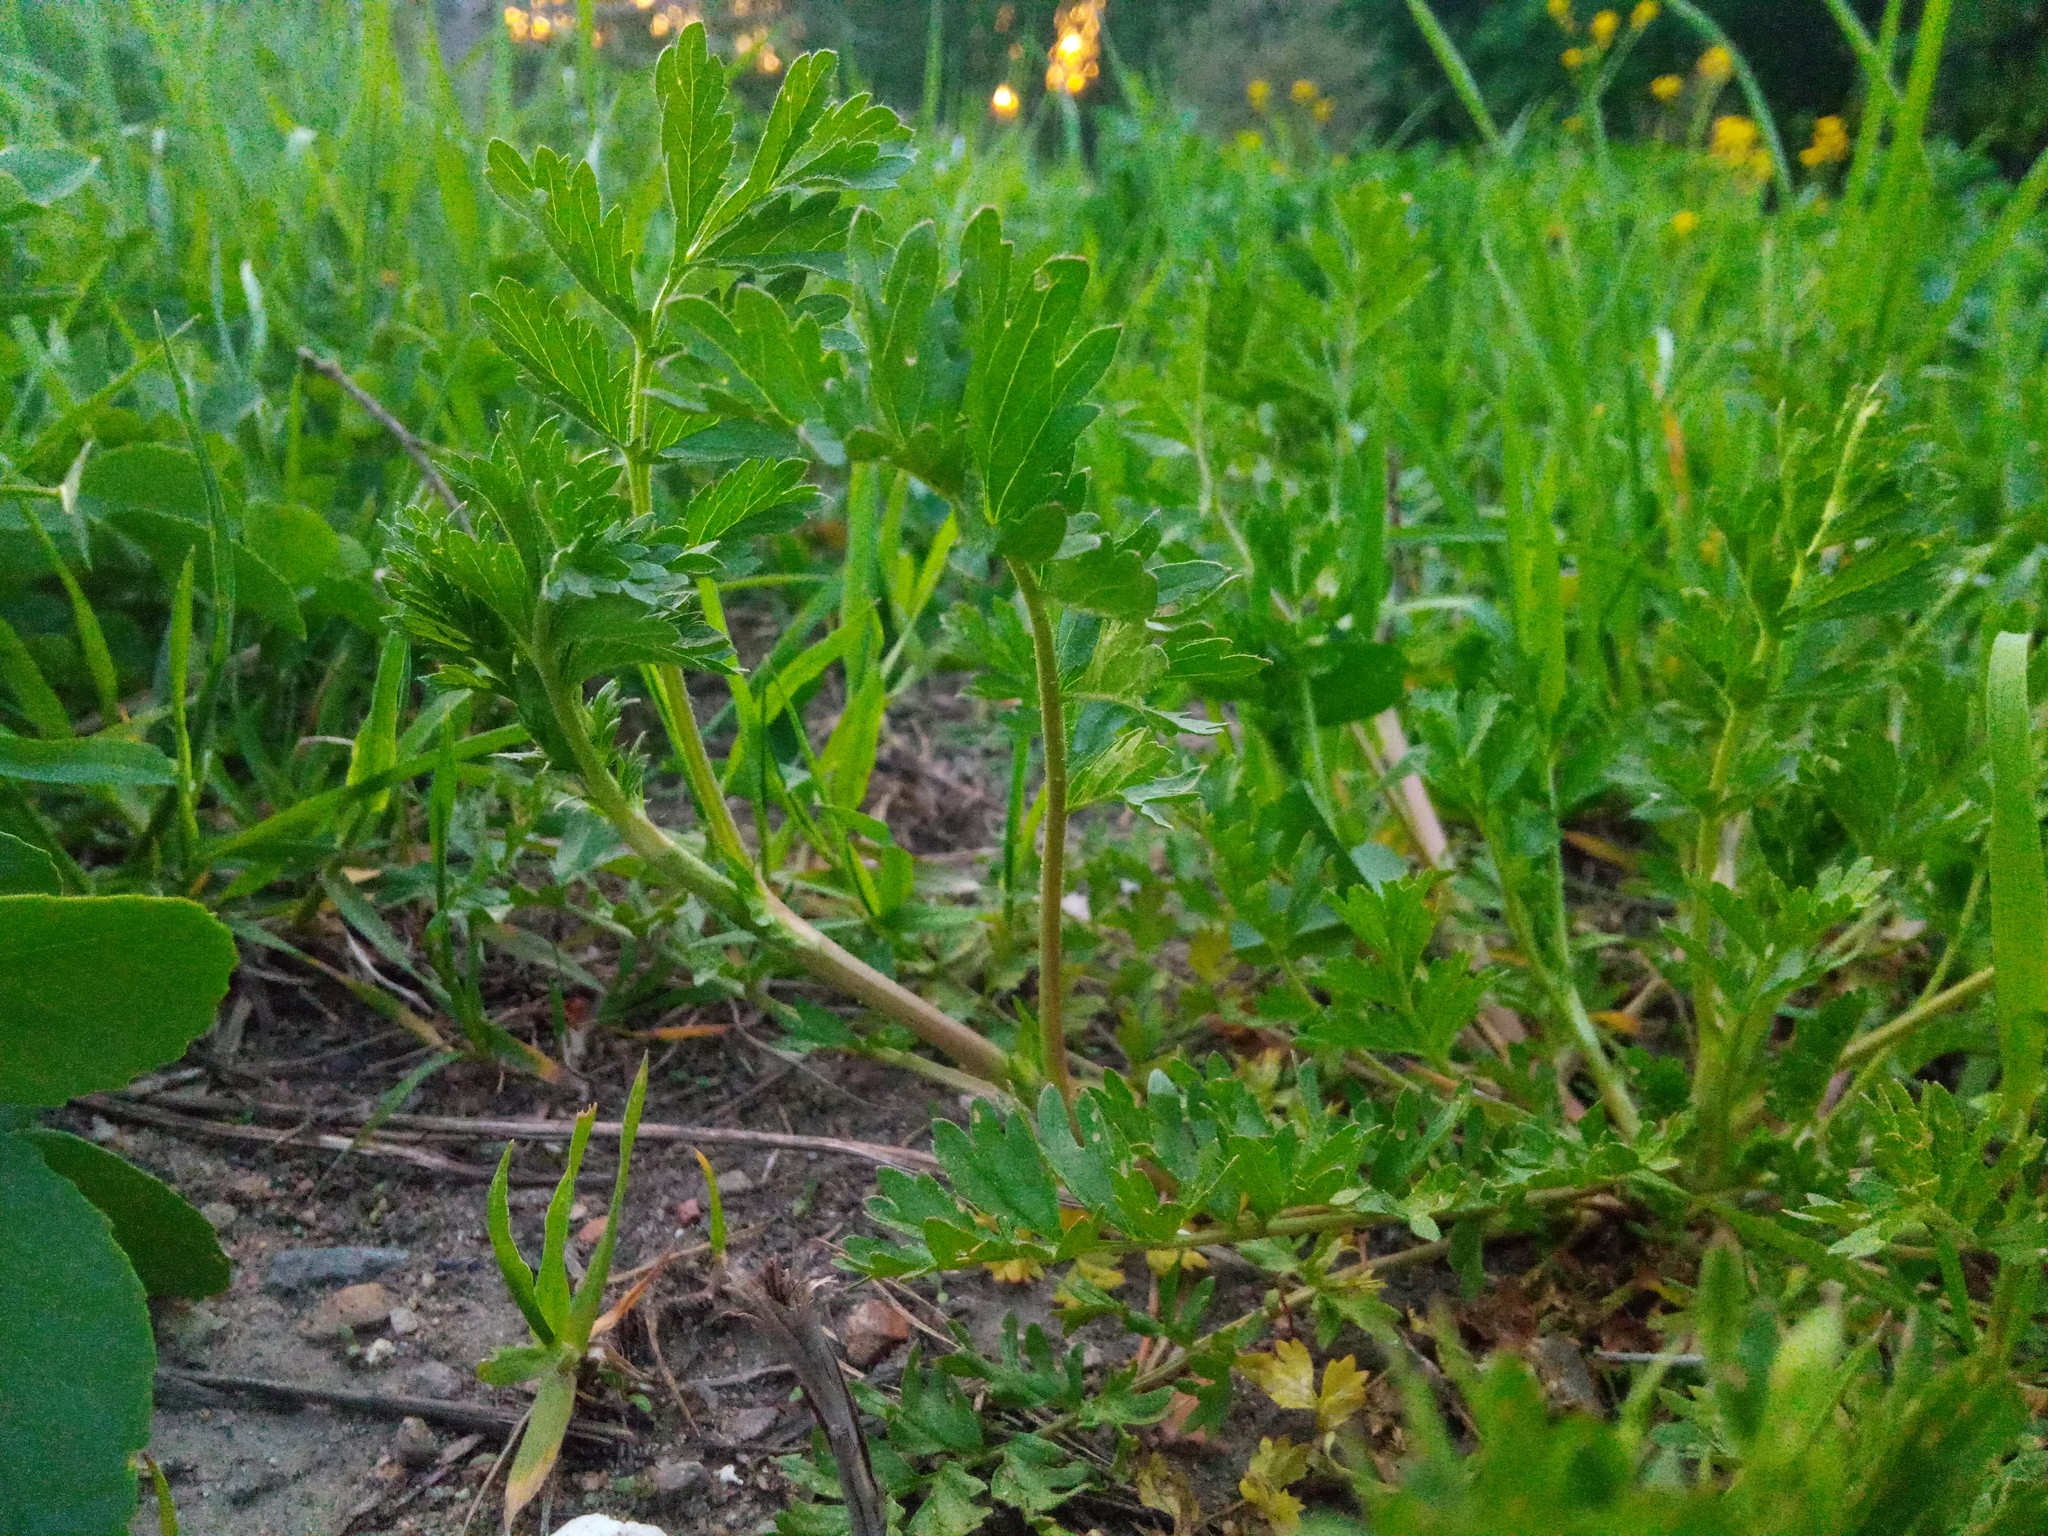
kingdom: Plantae
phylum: Tracheophyta
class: Magnoliopsida
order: Rosales
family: Rosaceae
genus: Potentilla
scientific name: Potentilla supina
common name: Prostrate cinquefoil
